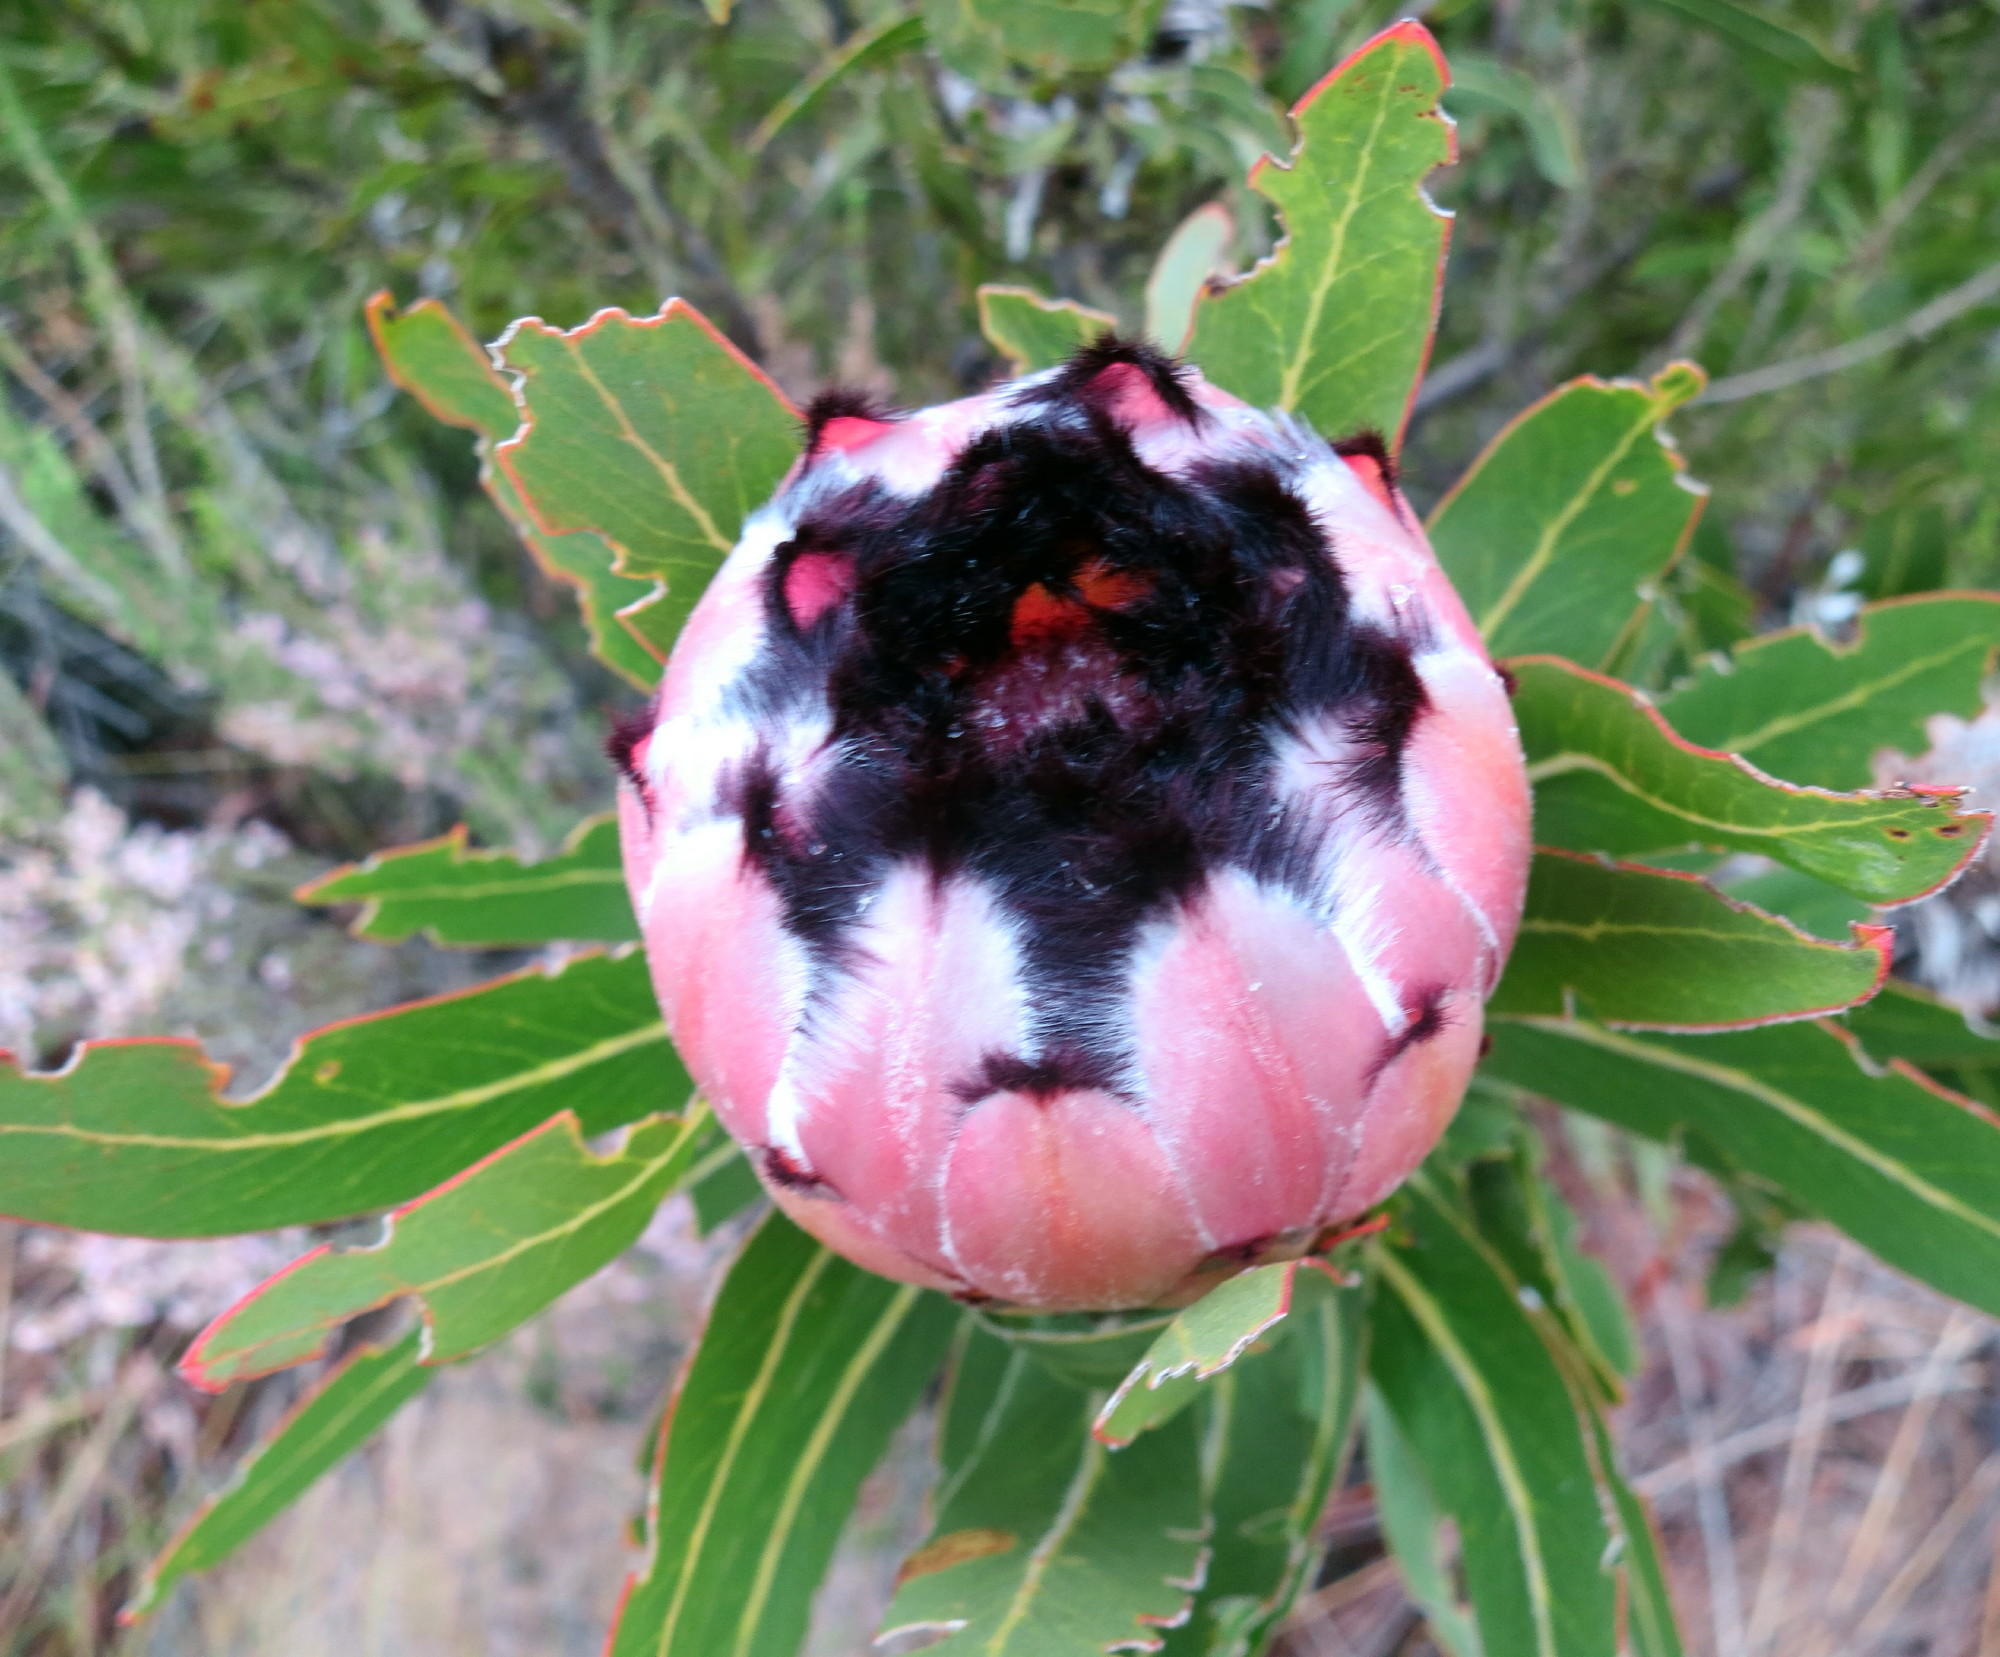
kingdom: Plantae
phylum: Tracheophyta
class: Magnoliopsida
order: Proteales
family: Proteaceae
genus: Protea
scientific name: Protea neriifolia
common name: Blue sugarbush
